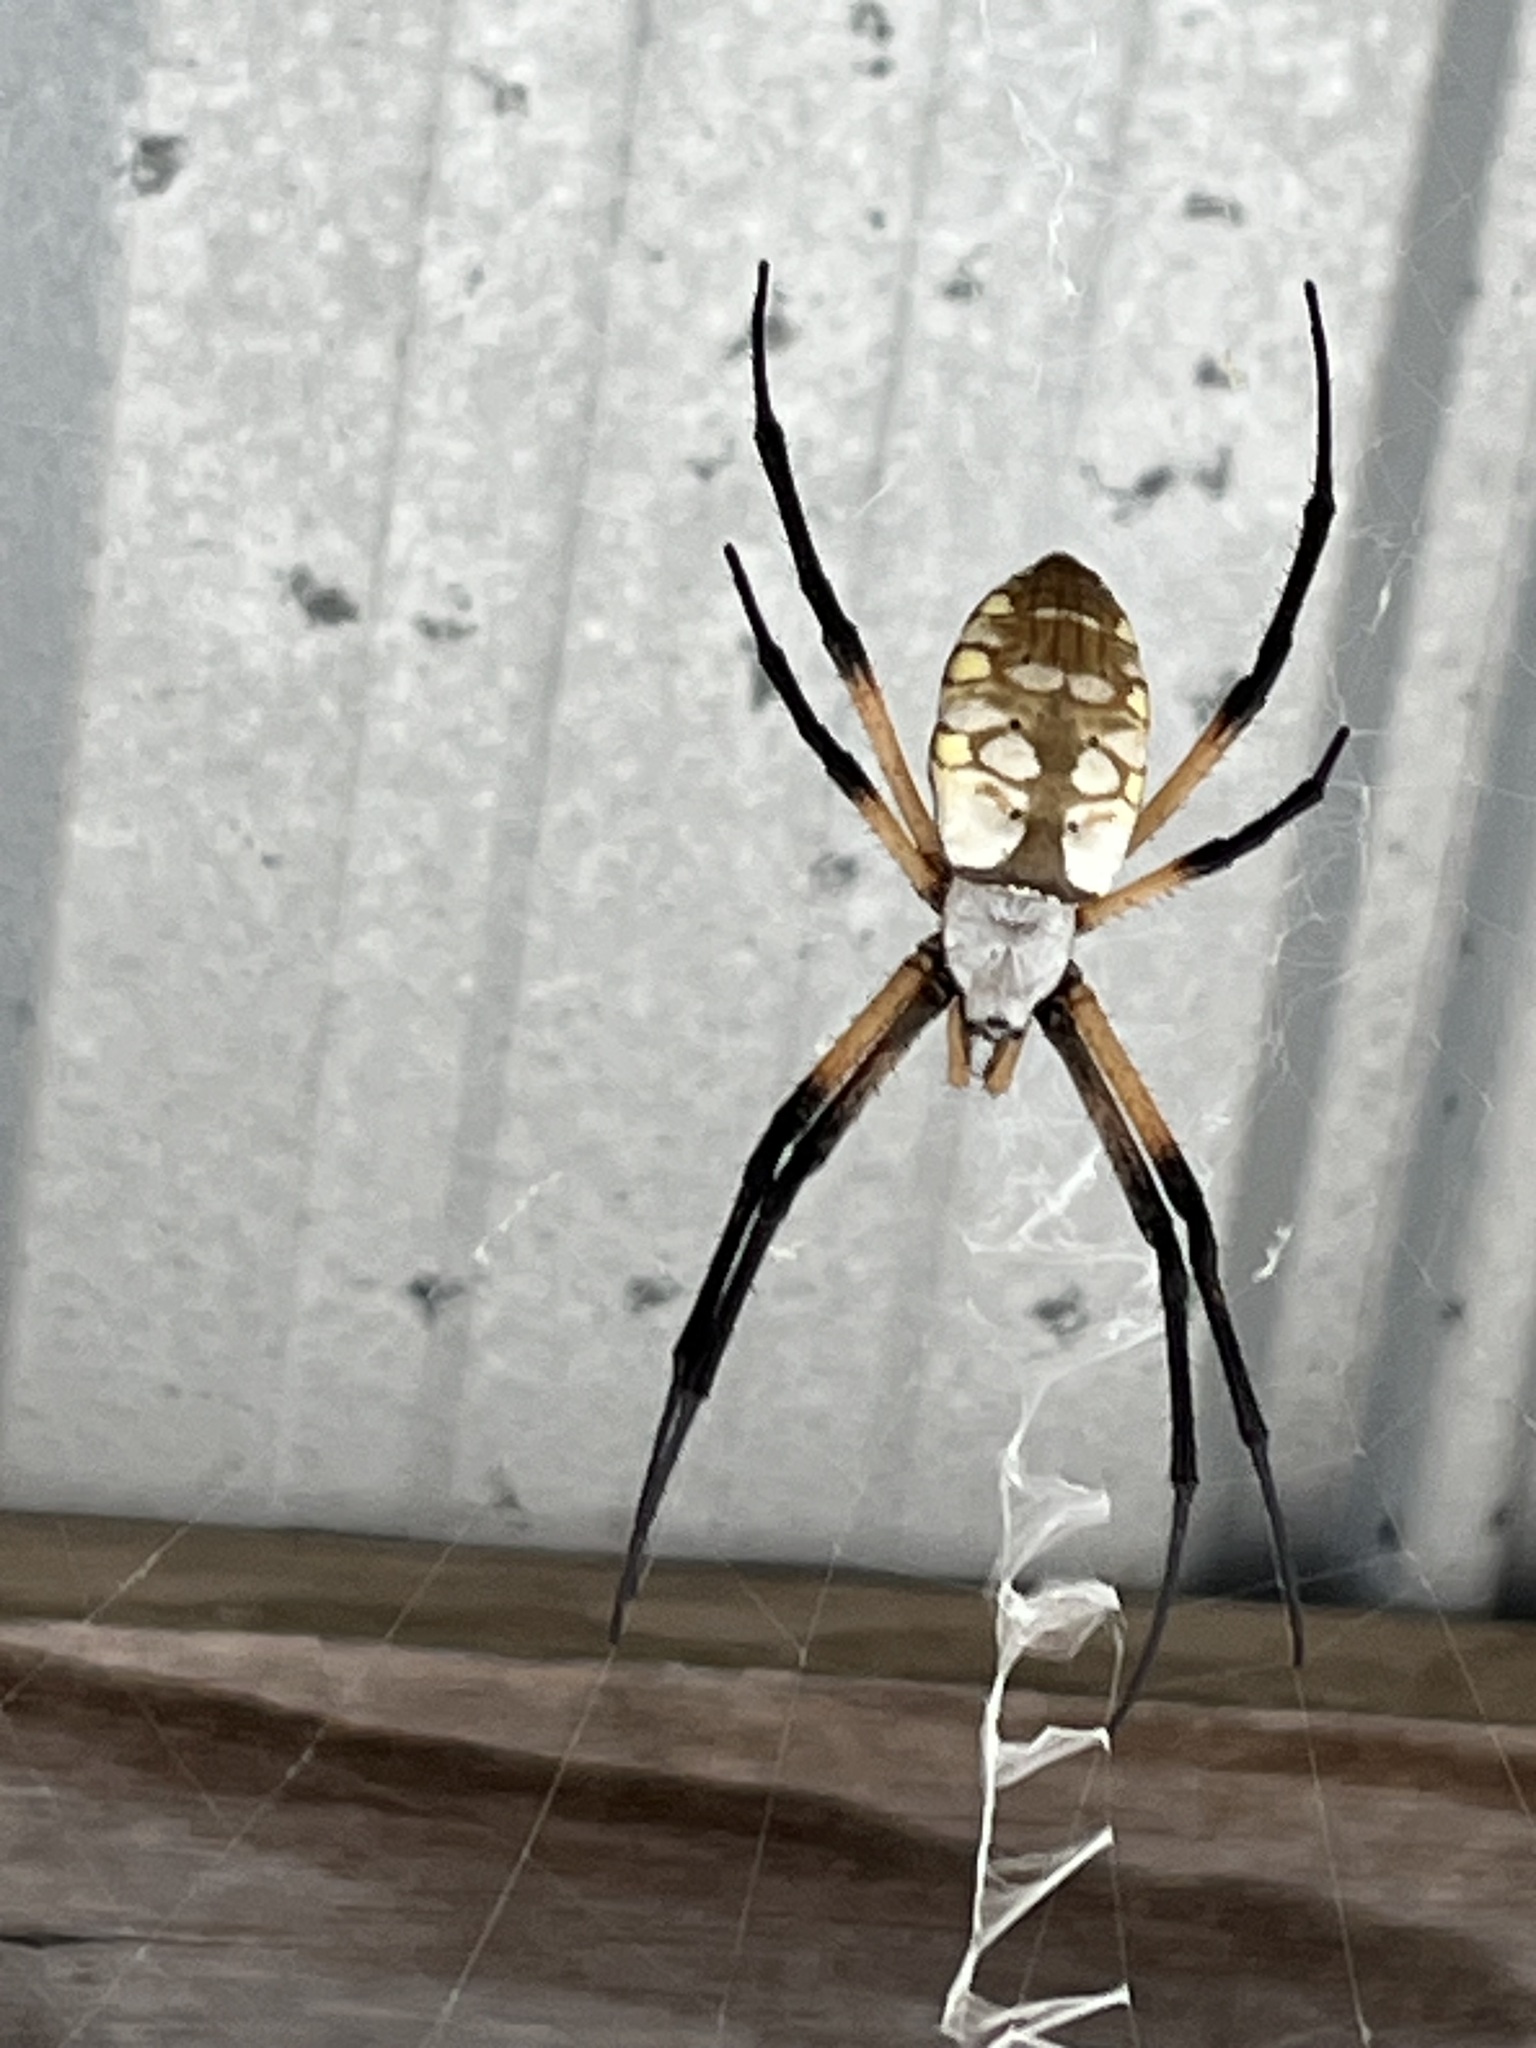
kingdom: Animalia
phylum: Arthropoda
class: Arachnida
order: Araneae
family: Araneidae
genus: Argiope
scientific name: Argiope aurantia
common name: Orb weavers
